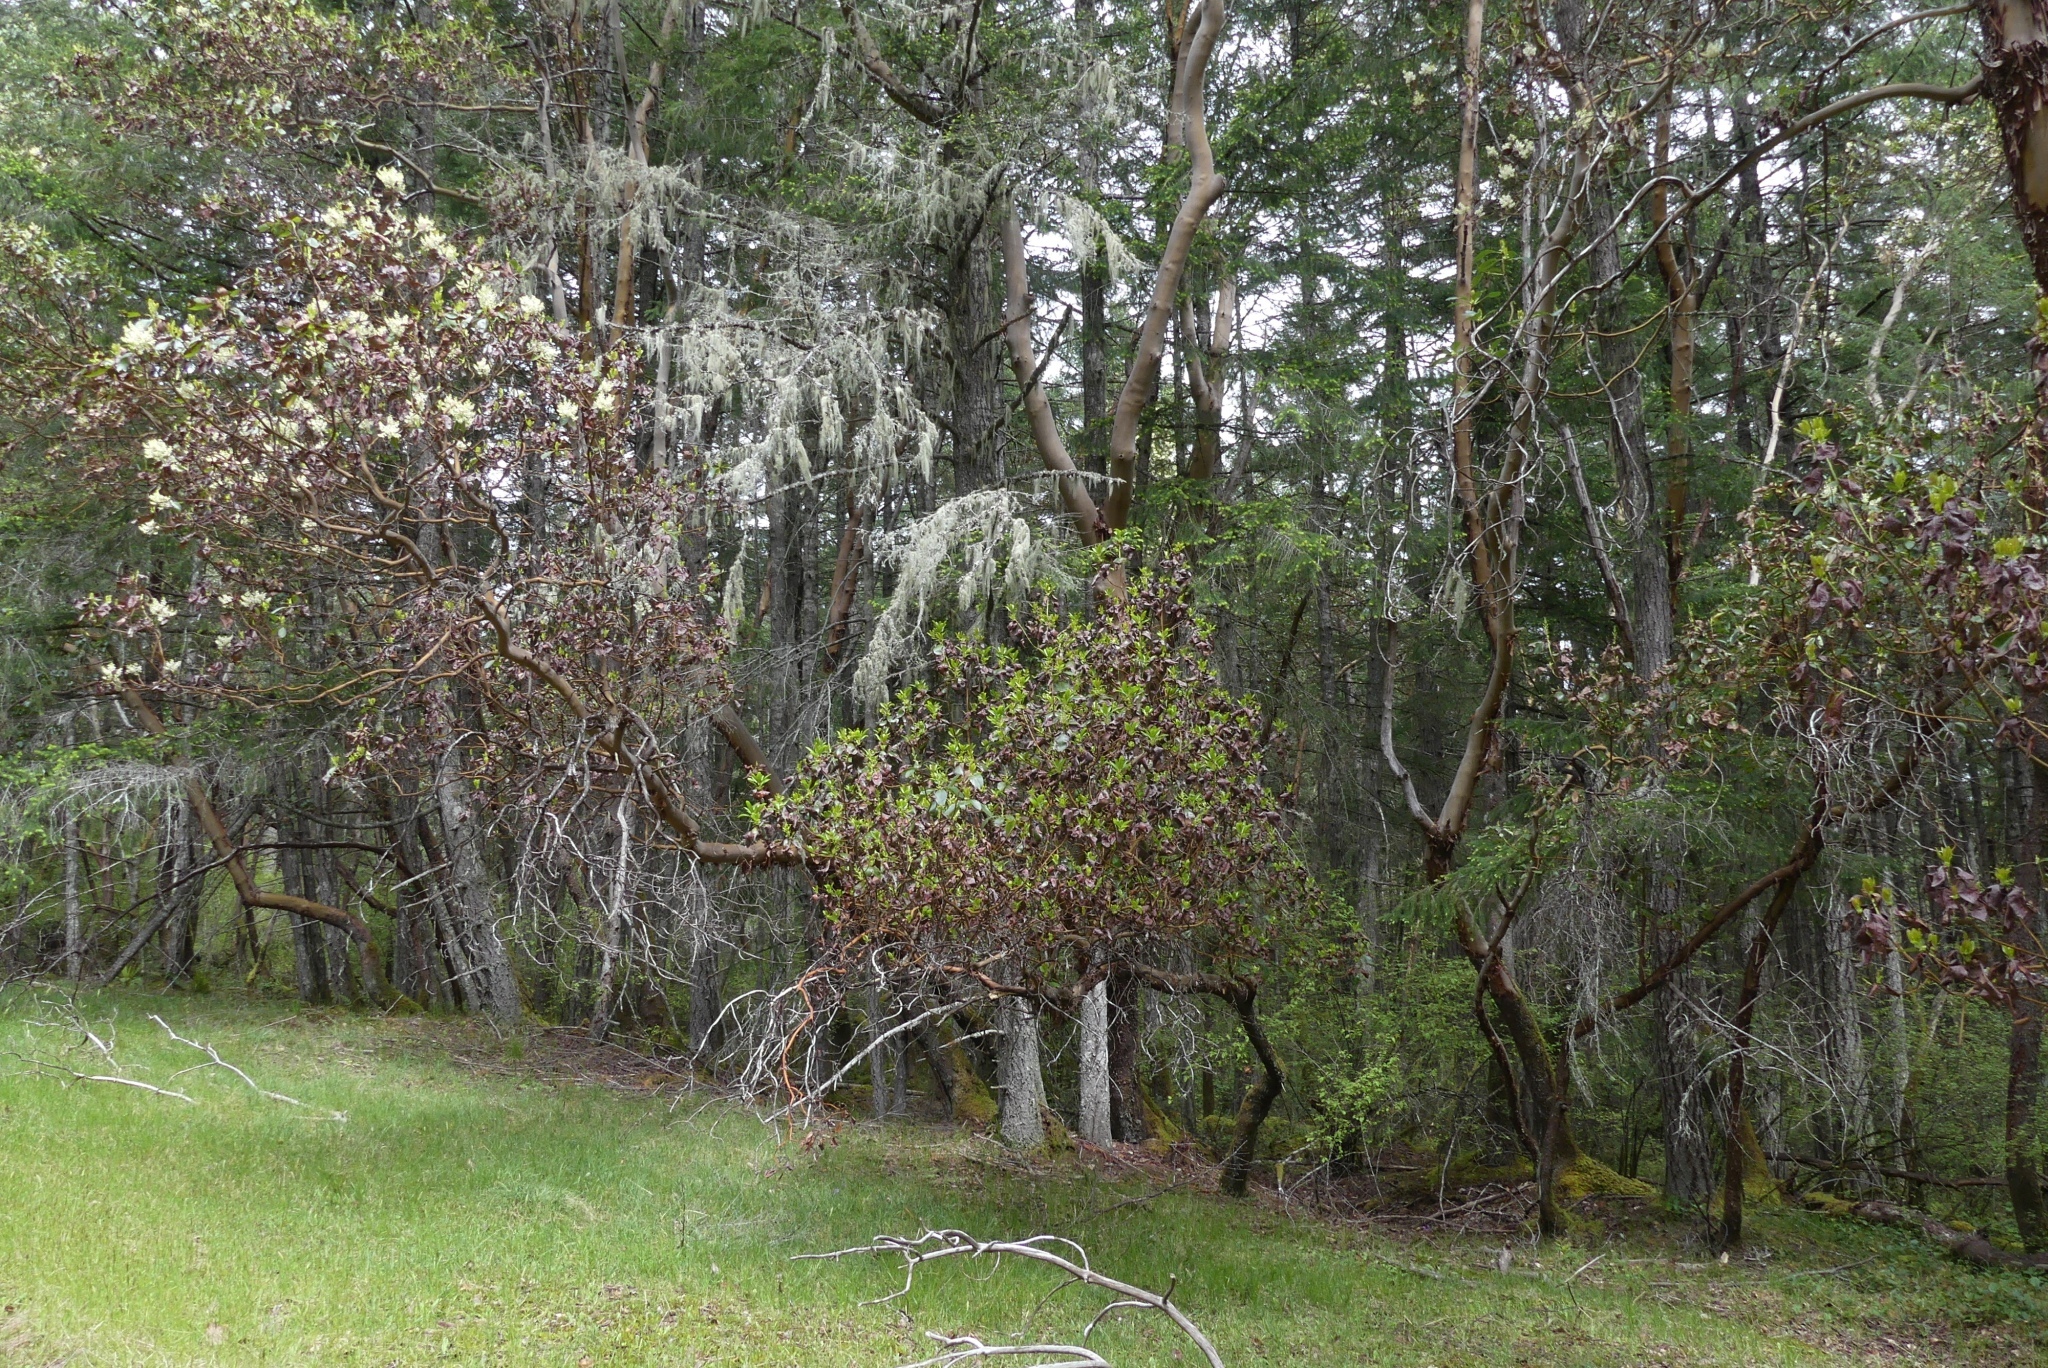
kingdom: Plantae
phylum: Tracheophyta
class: Magnoliopsida
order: Ericales
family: Ericaceae
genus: Arbutus
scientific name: Arbutus menziesii
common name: Pacific madrone
